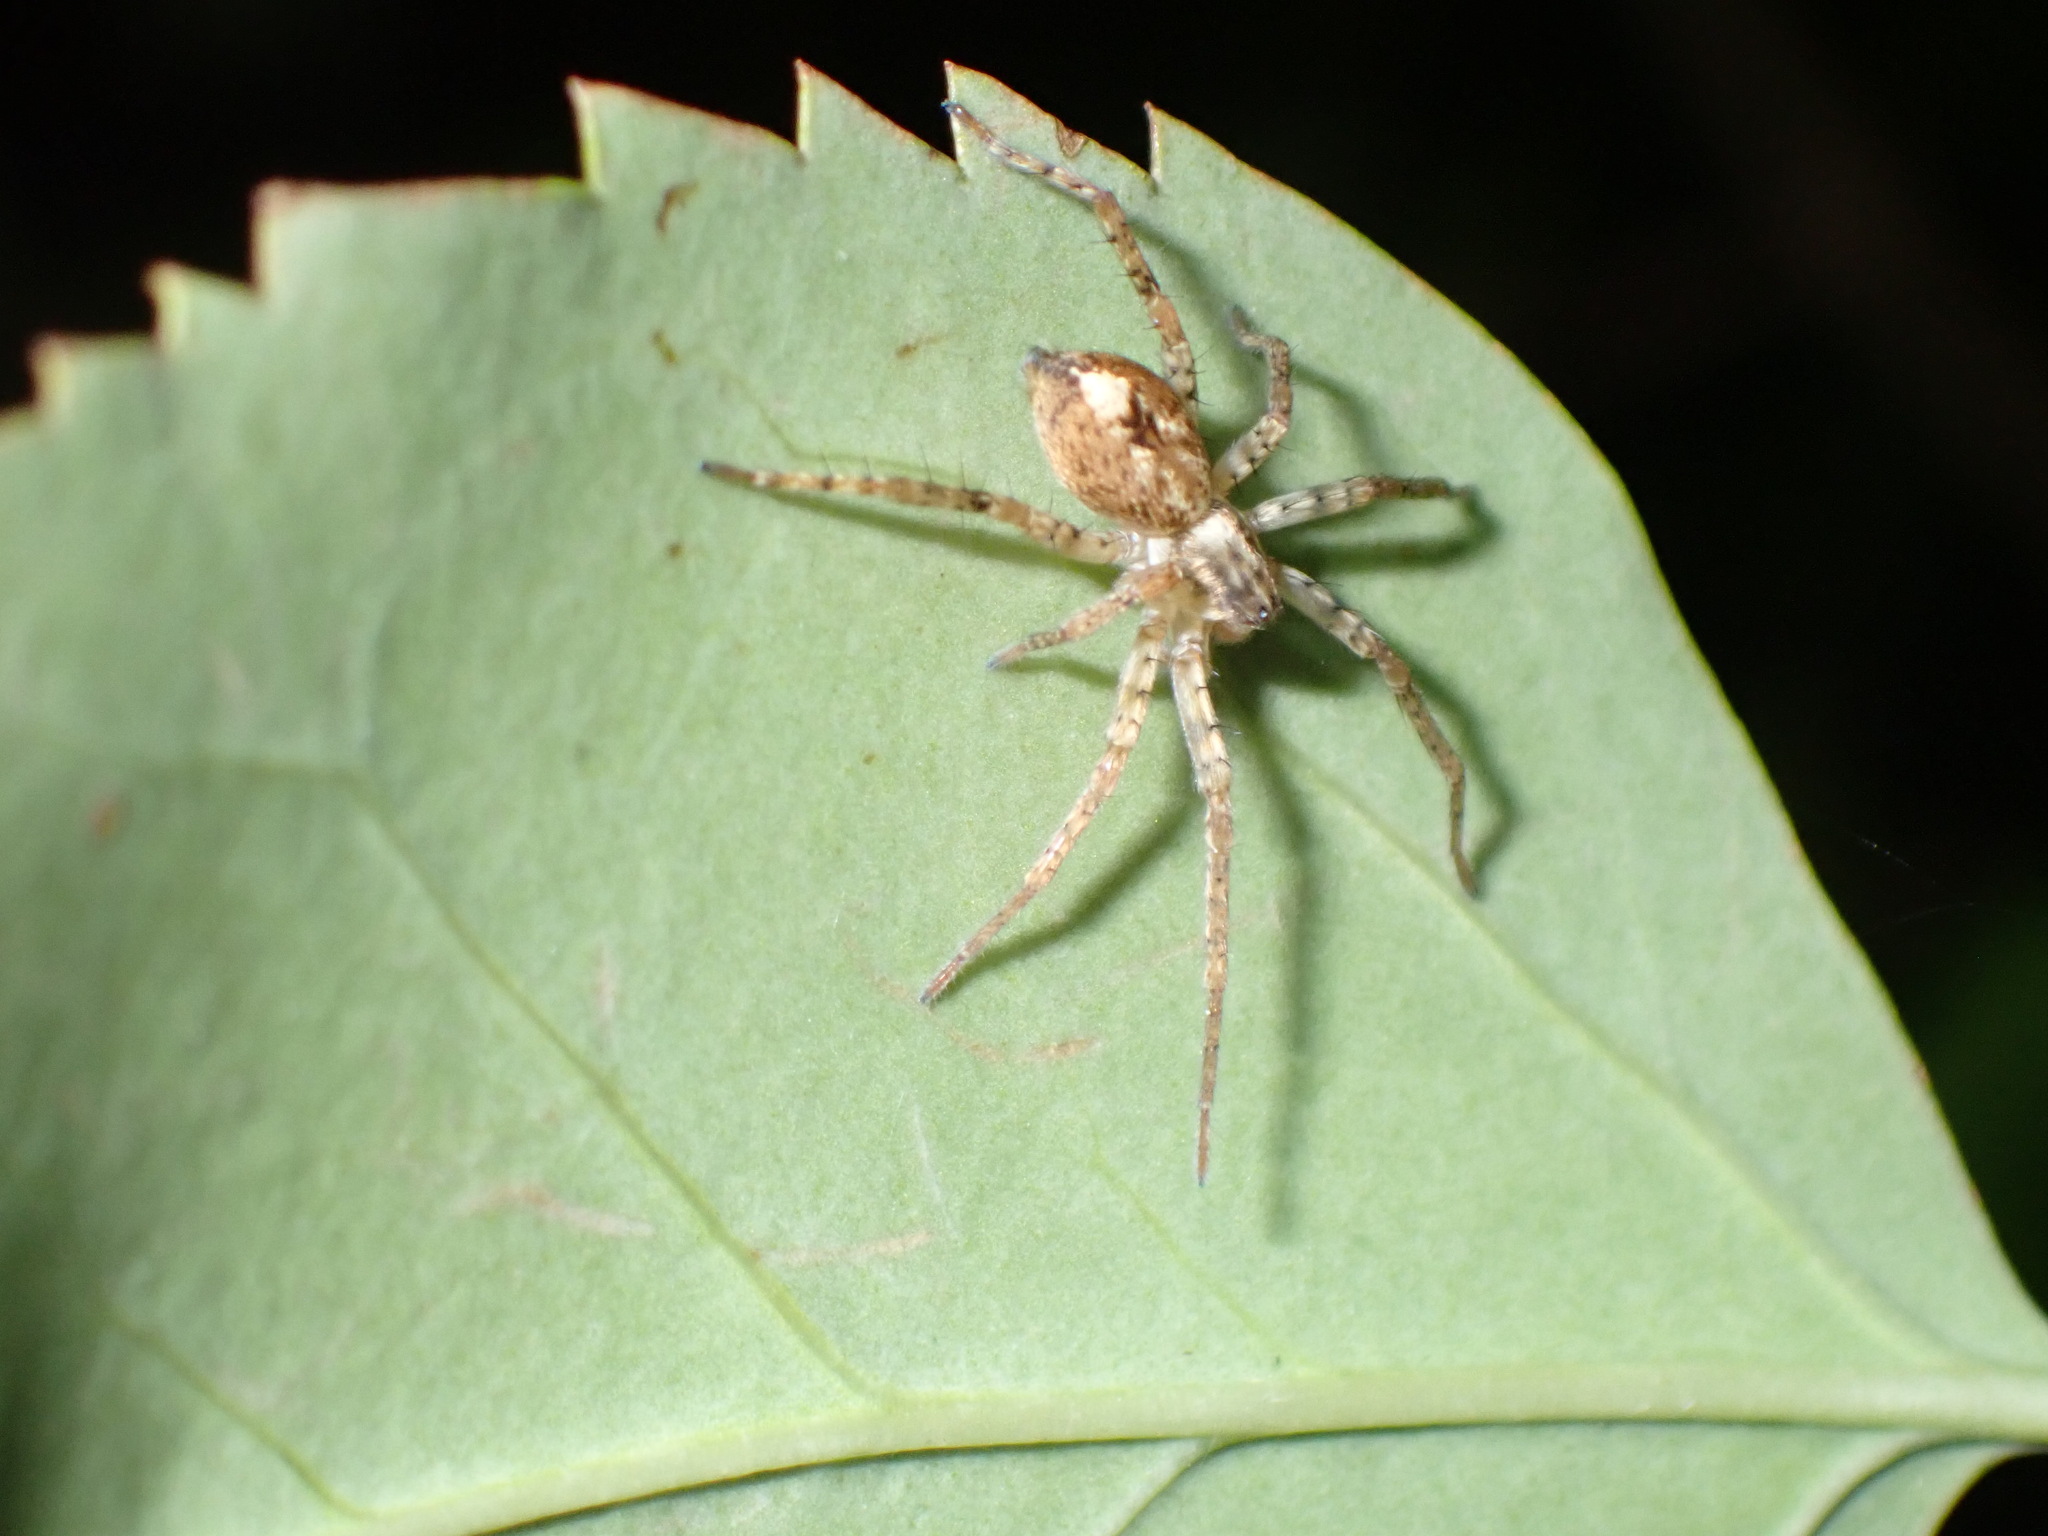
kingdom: Animalia
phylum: Arthropoda
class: Arachnida
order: Araneae
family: Anyphaenidae
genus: Anyphaena
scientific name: Anyphaena accentuata
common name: Buzzing spider
